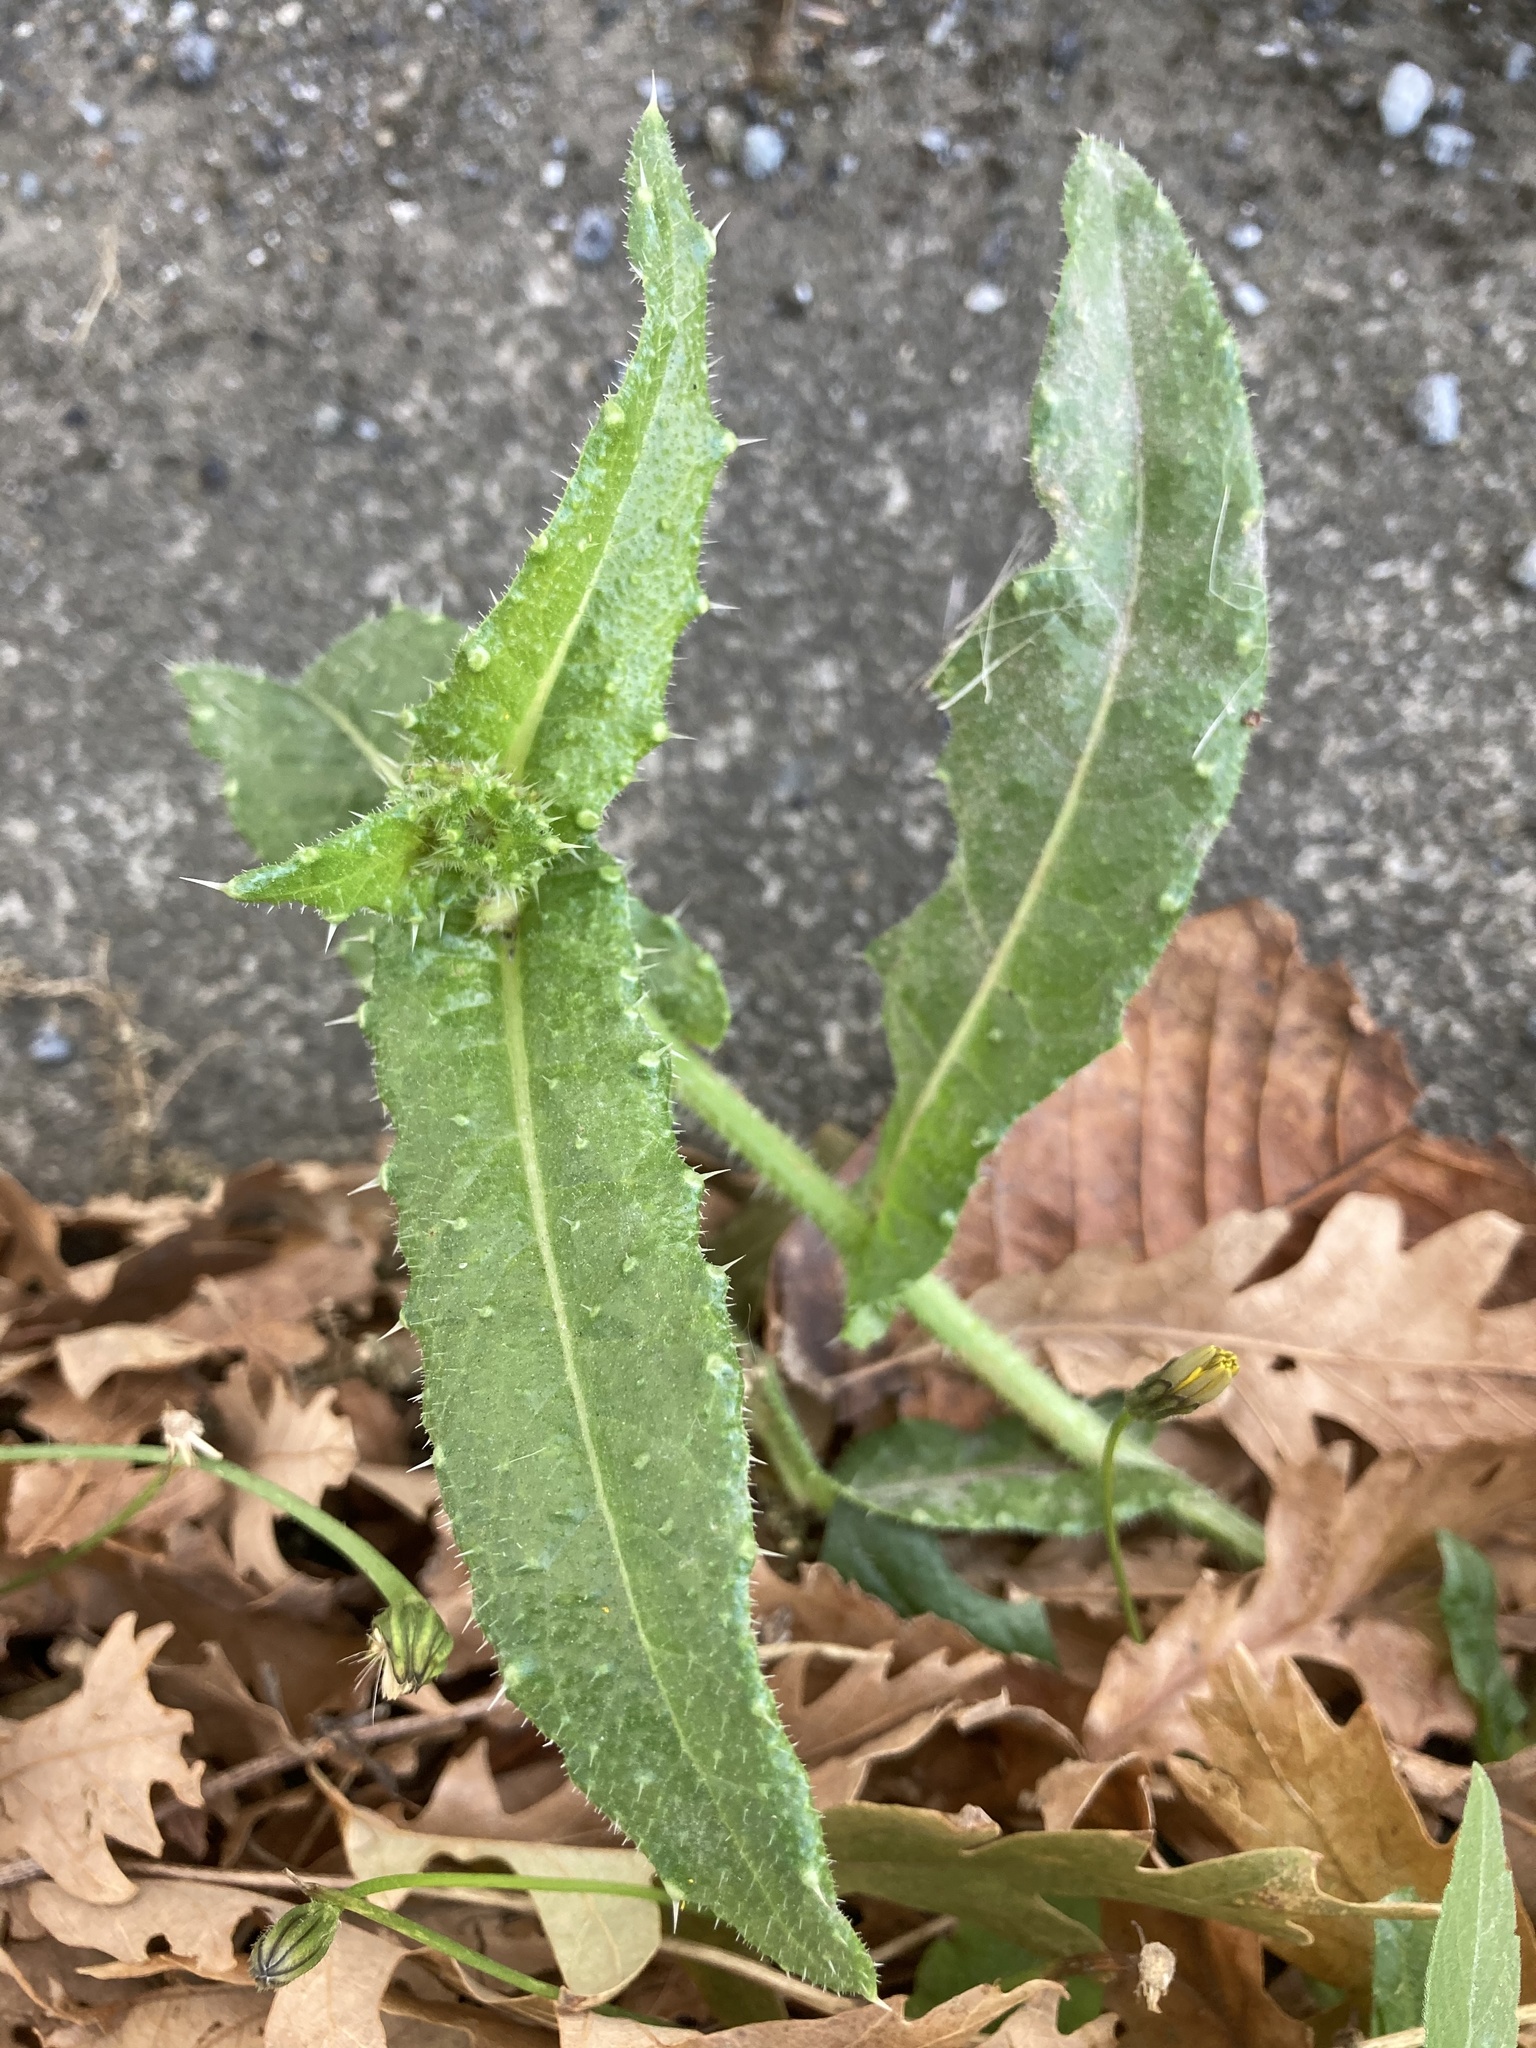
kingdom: Plantae
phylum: Tracheophyta
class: Magnoliopsida
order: Asterales
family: Asteraceae
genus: Helminthotheca
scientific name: Helminthotheca echioides
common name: Ox-tongue
